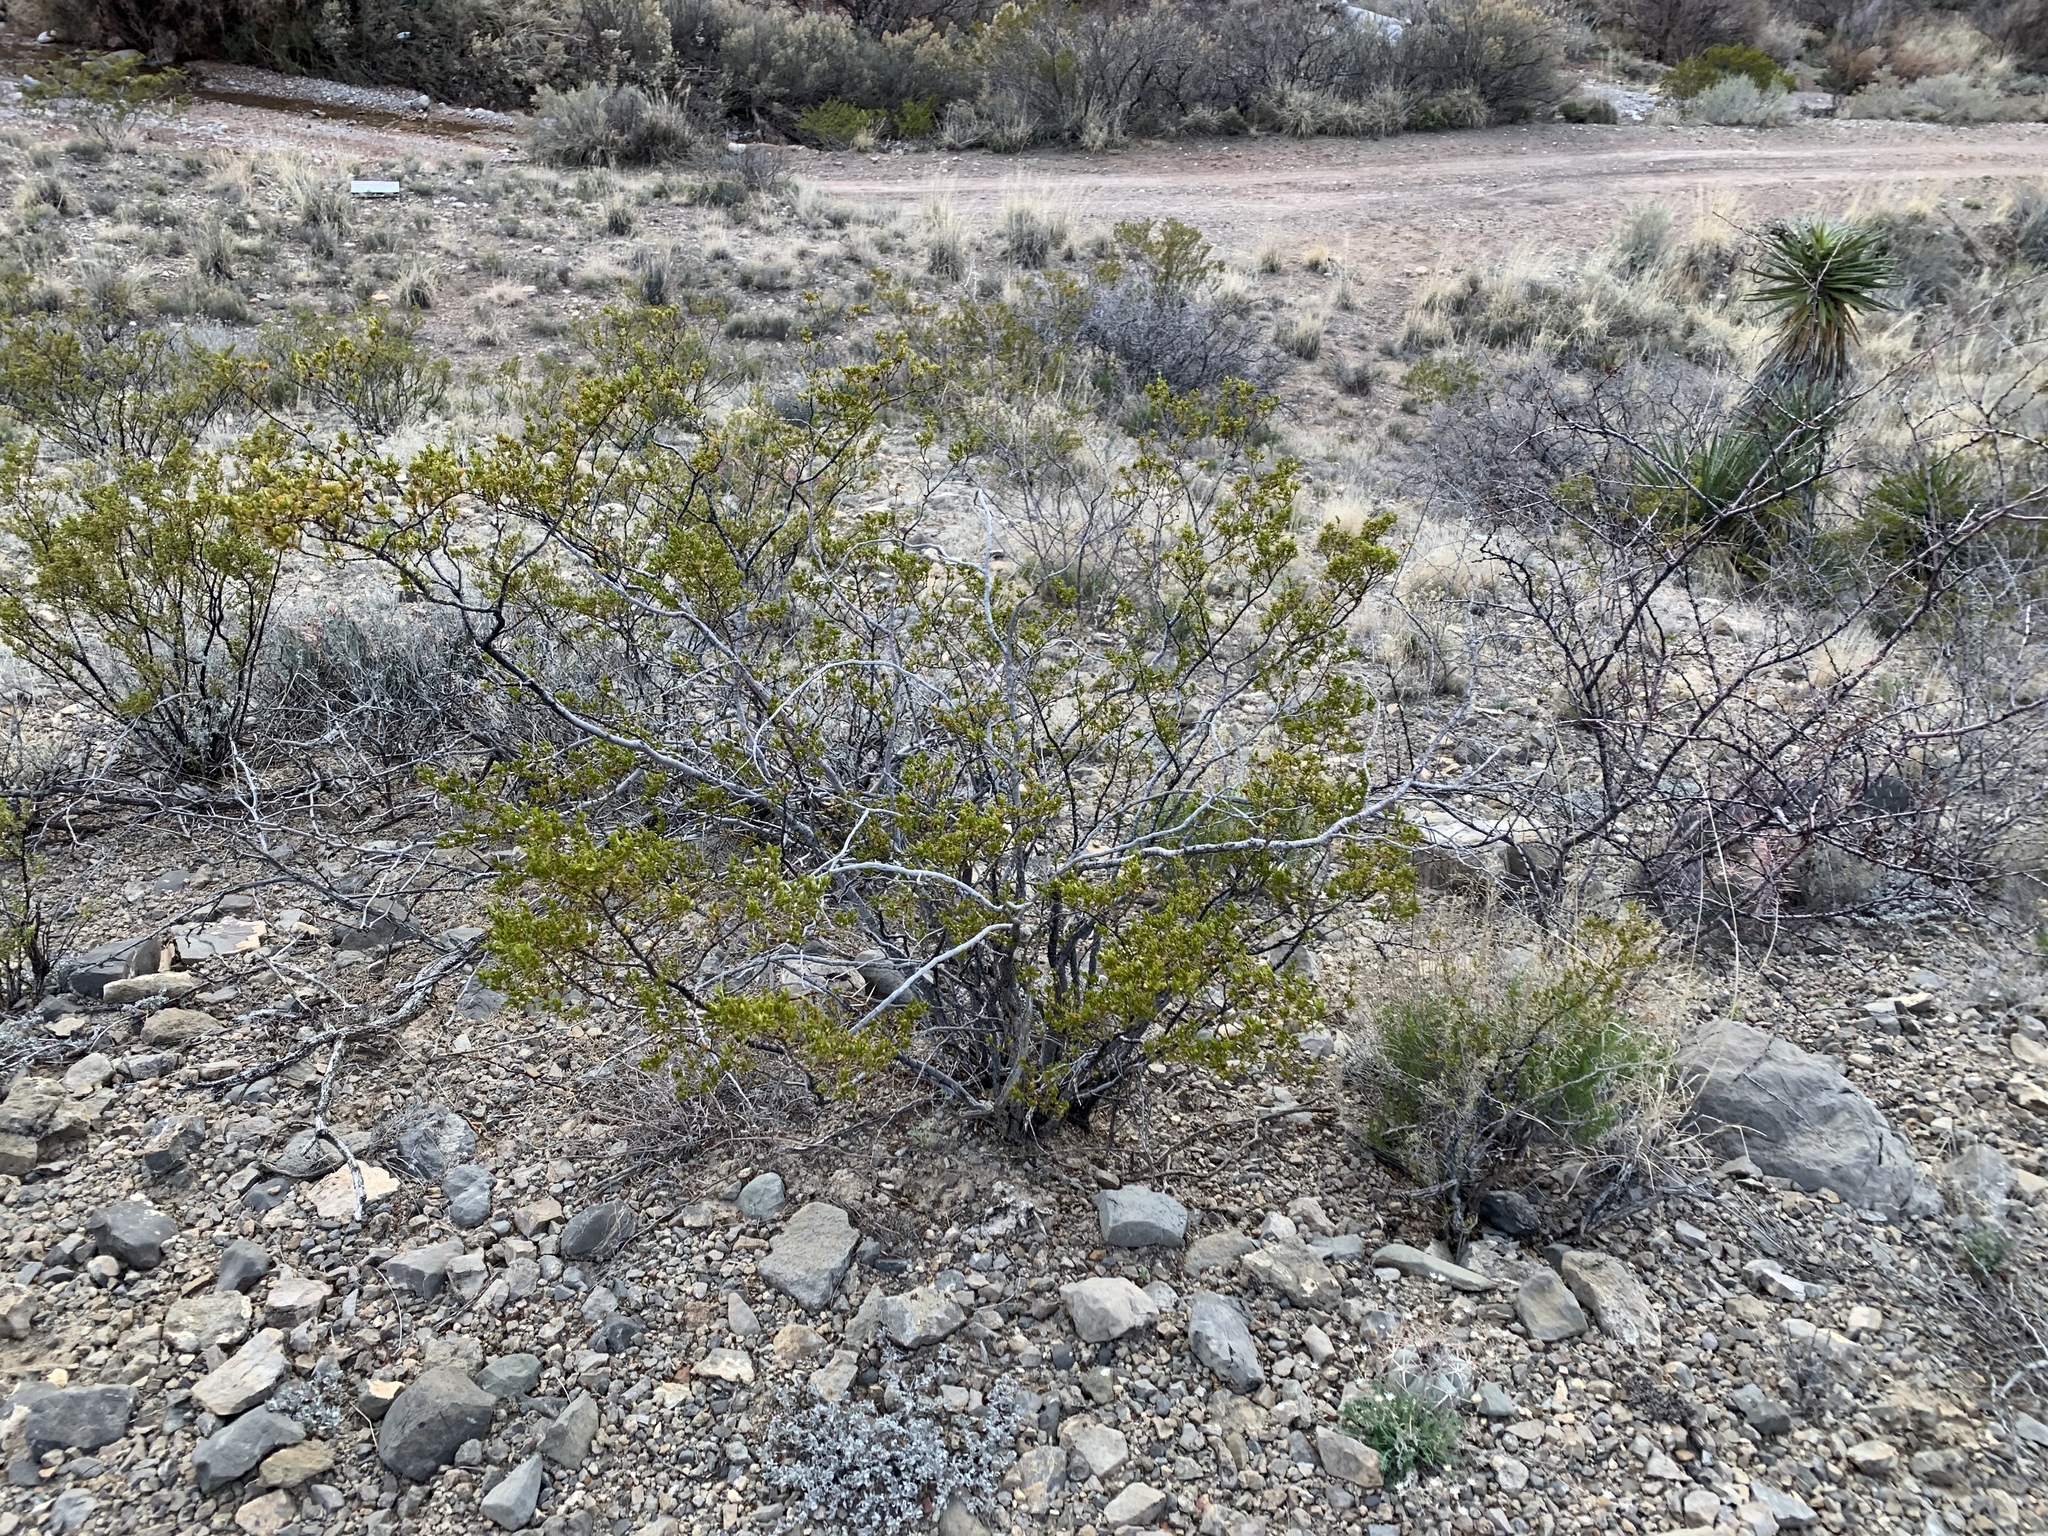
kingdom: Plantae
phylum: Tracheophyta
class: Magnoliopsida
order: Zygophyllales
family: Zygophyllaceae
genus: Larrea
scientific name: Larrea tridentata
